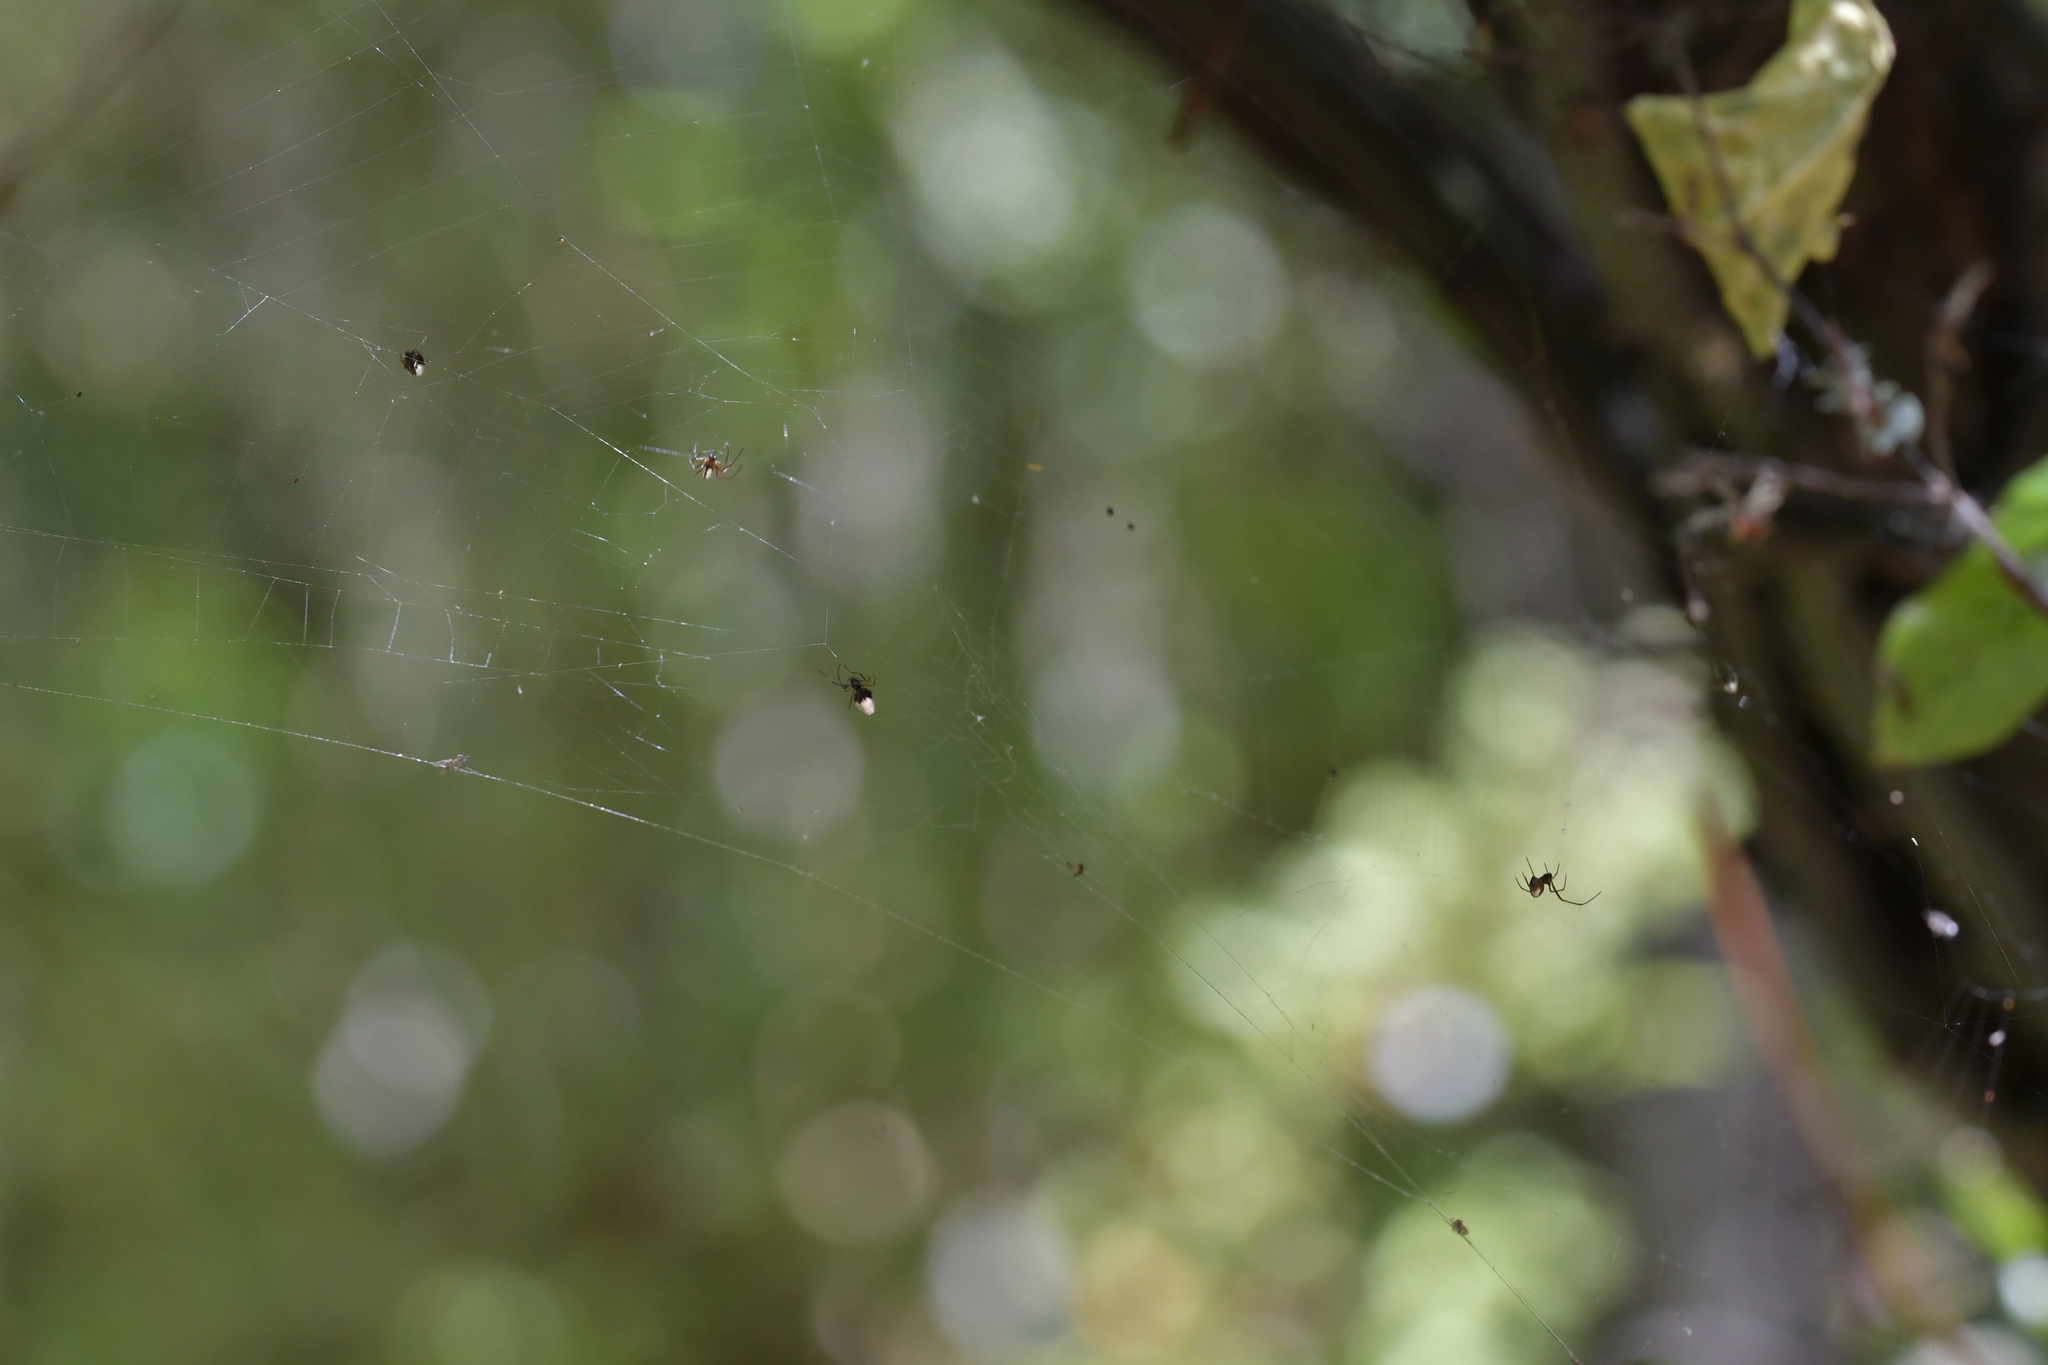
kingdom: Animalia
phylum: Arthropoda
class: Arachnida
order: Araneae
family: Theridiidae
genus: Argyrodes
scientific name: Argyrodes antipodianus
